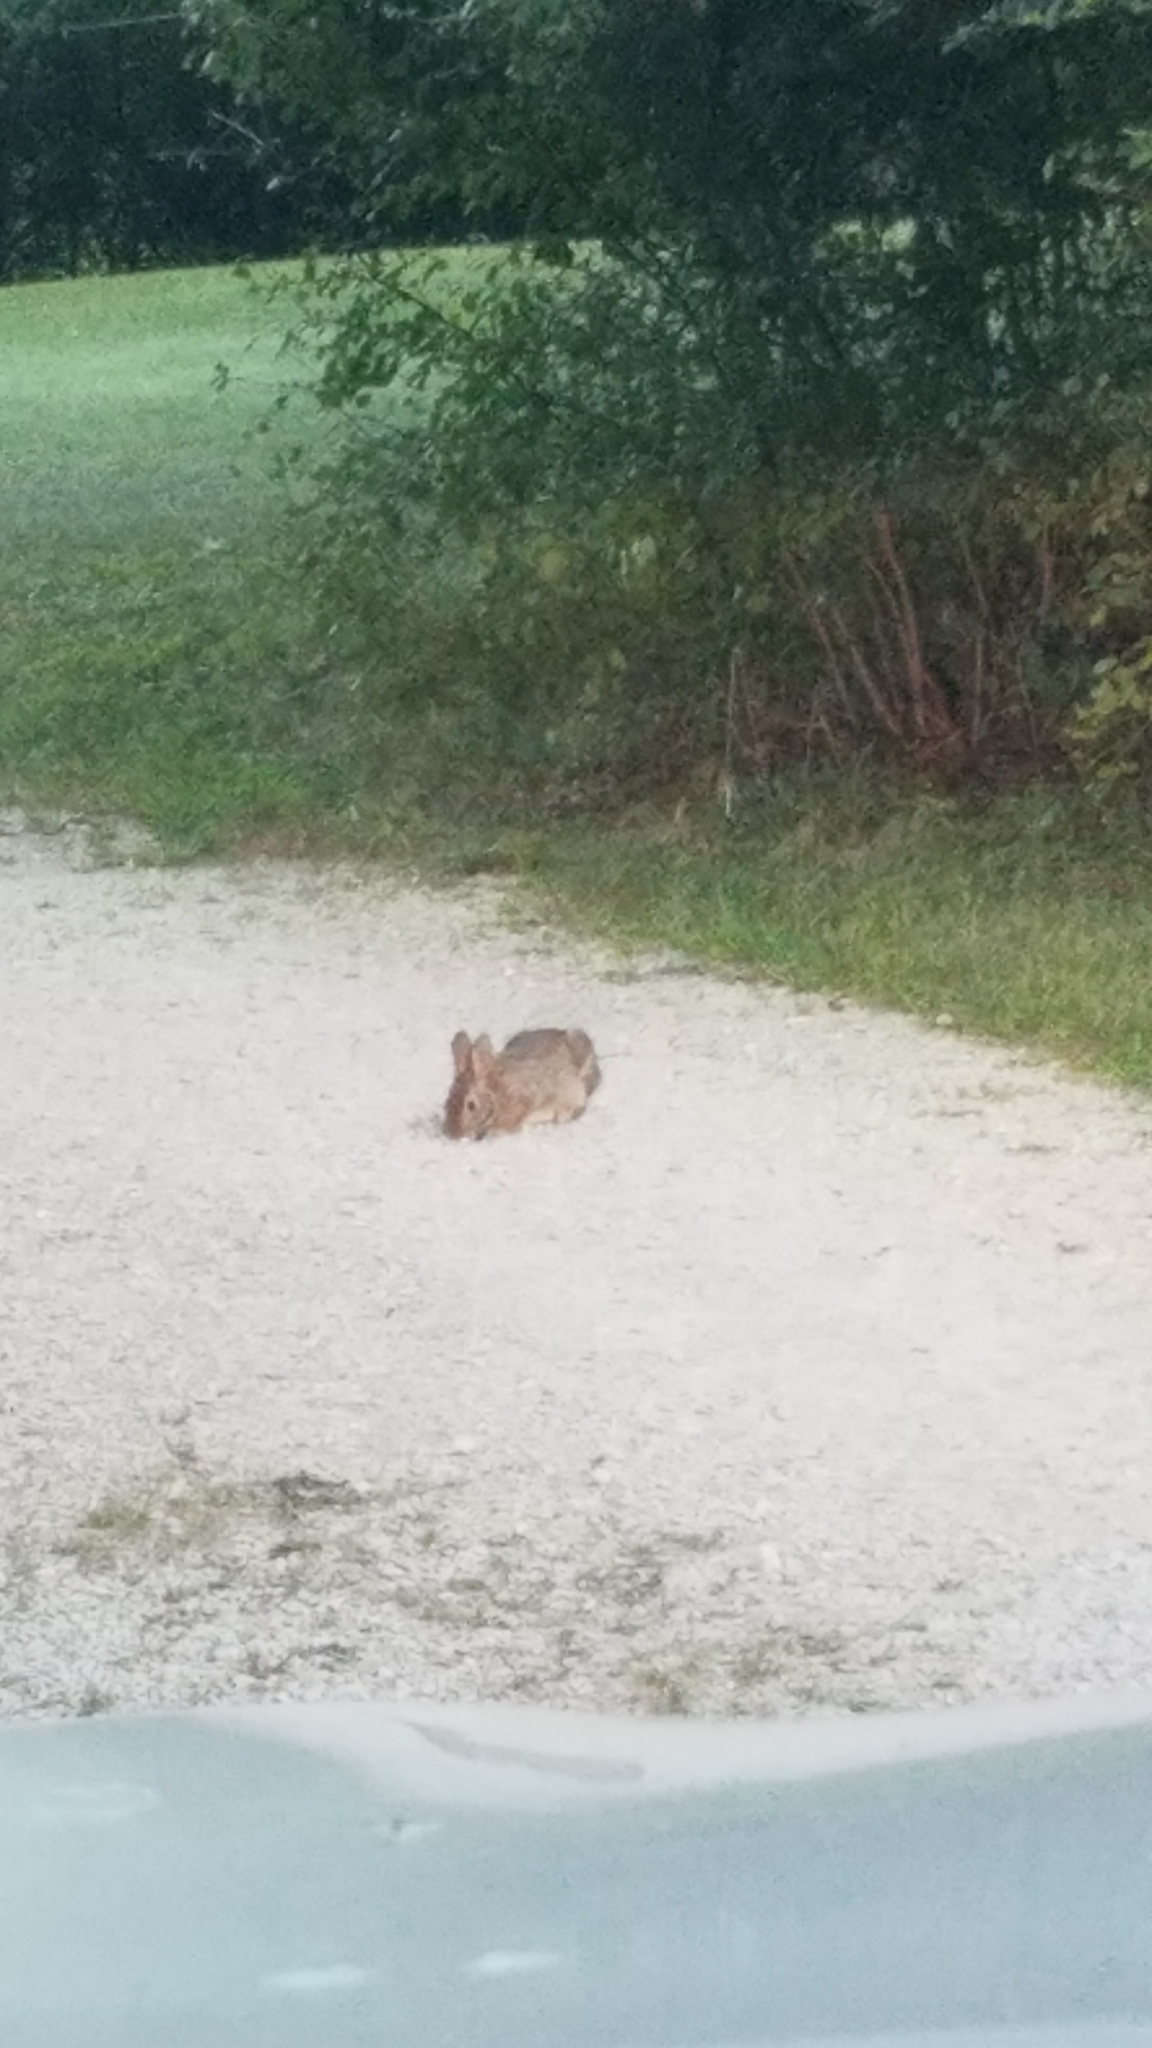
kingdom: Animalia
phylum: Chordata
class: Mammalia
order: Lagomorpha
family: Leporidae
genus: Sylvilagus
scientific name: Sylvilagus floridanus
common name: Eastern cottontail
